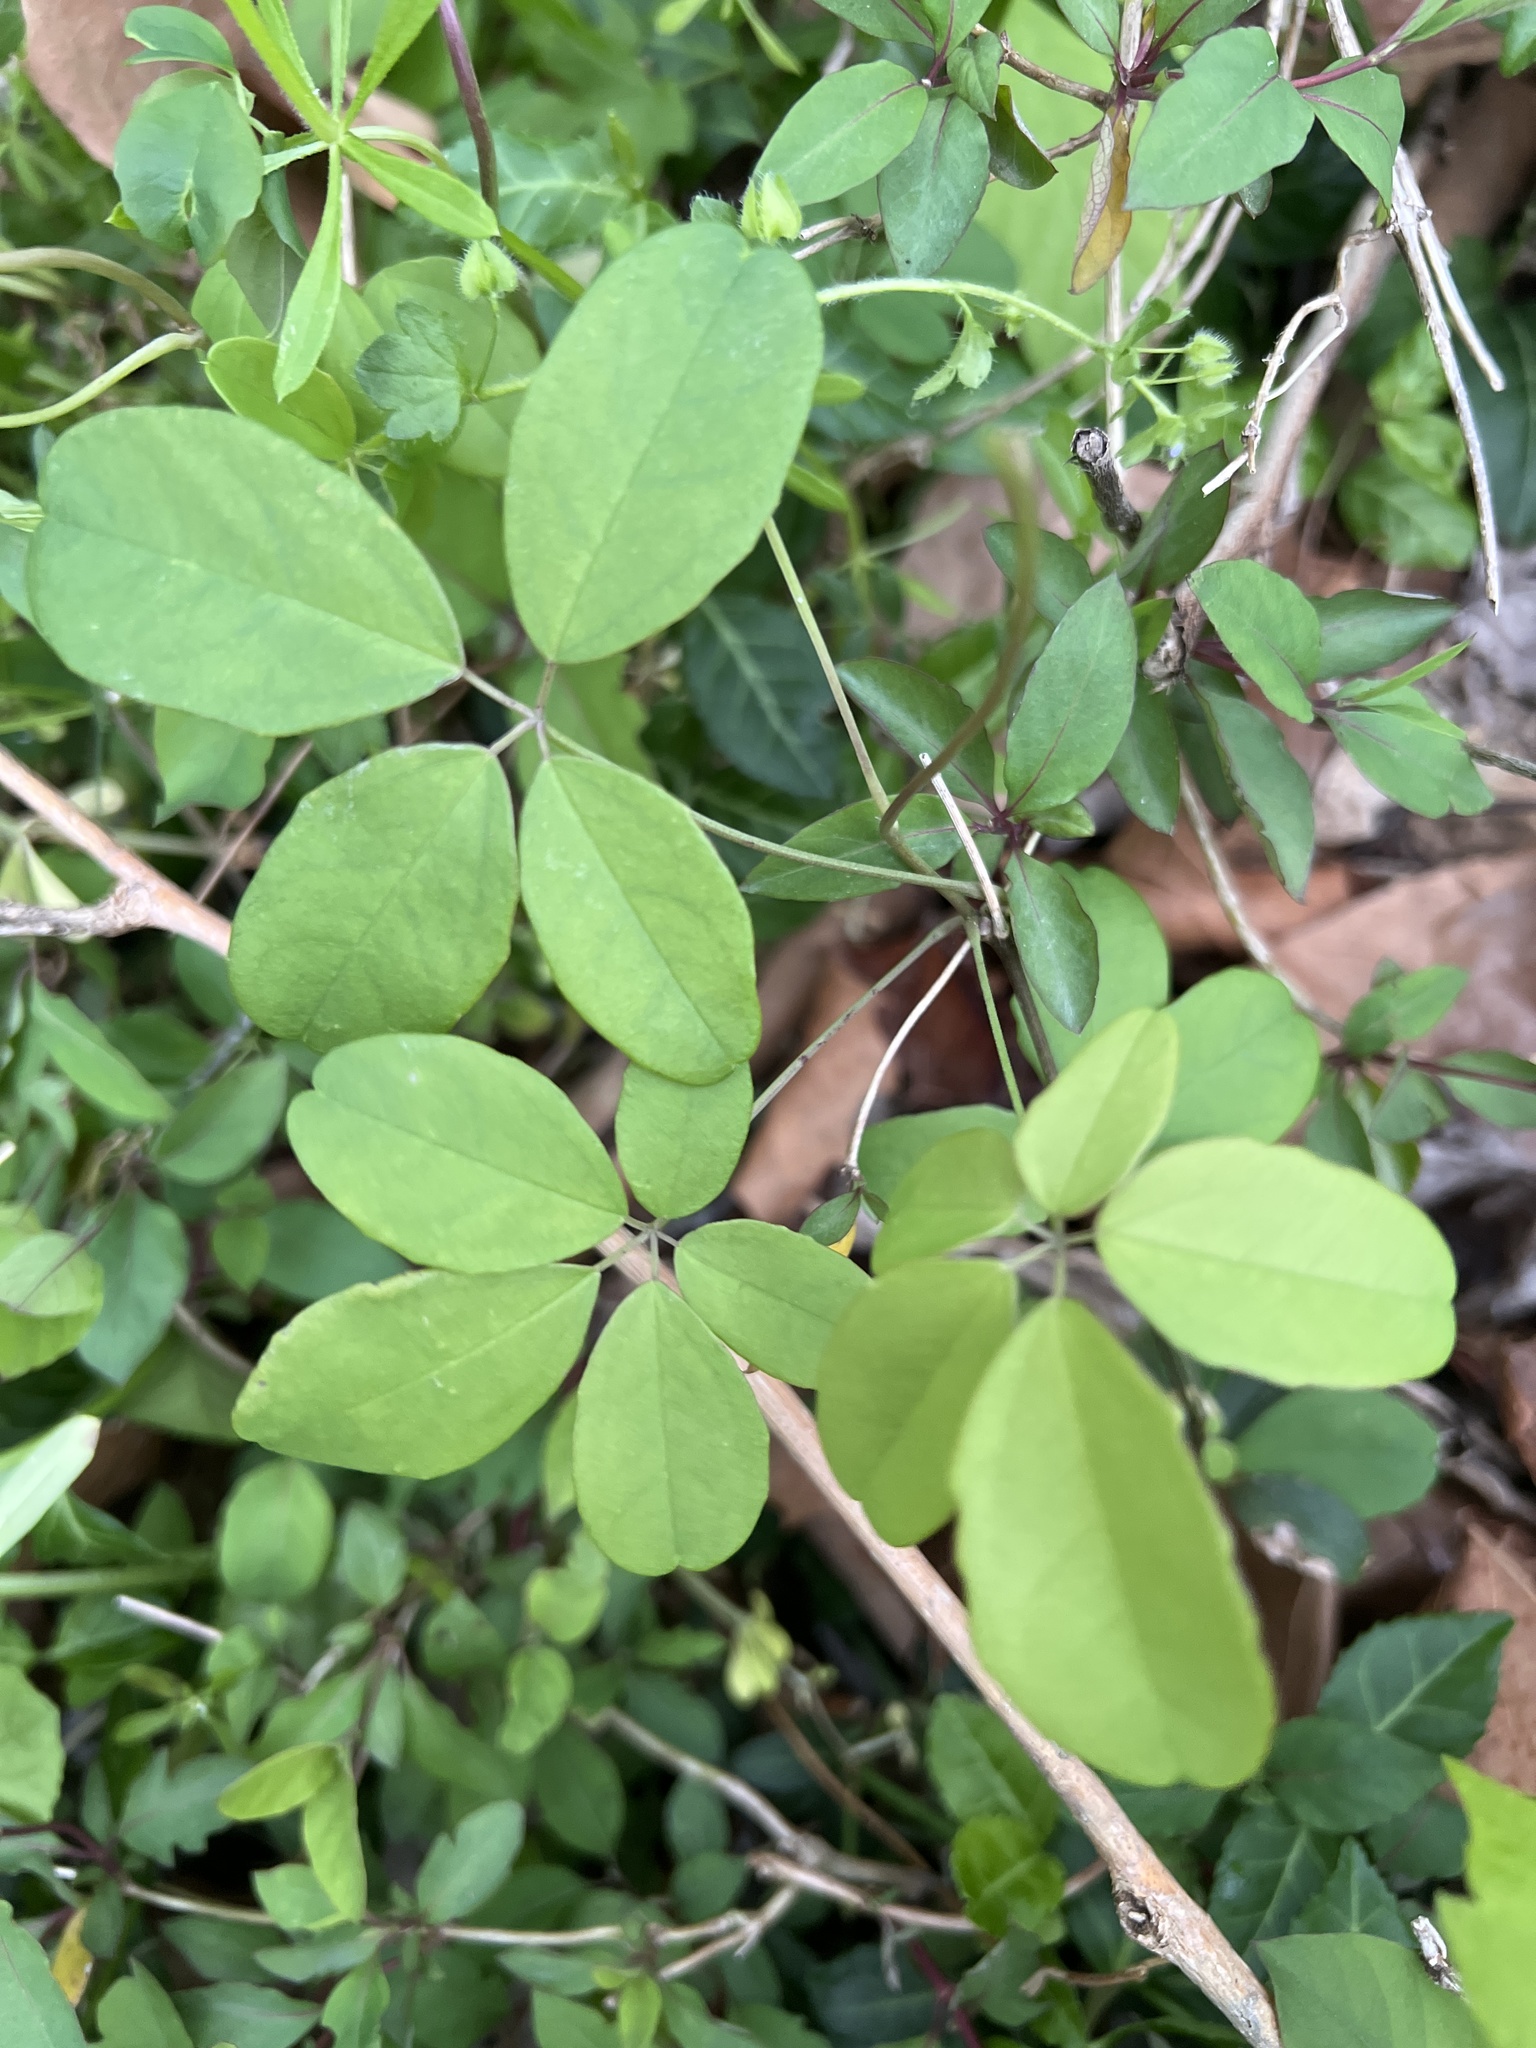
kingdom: Plantae
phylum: Tracheophyta
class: Magnoliopsida
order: Ranunculales
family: Lardizabalaceae
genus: Akebia
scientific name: Akebia quinata
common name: Five-leaf akebia
